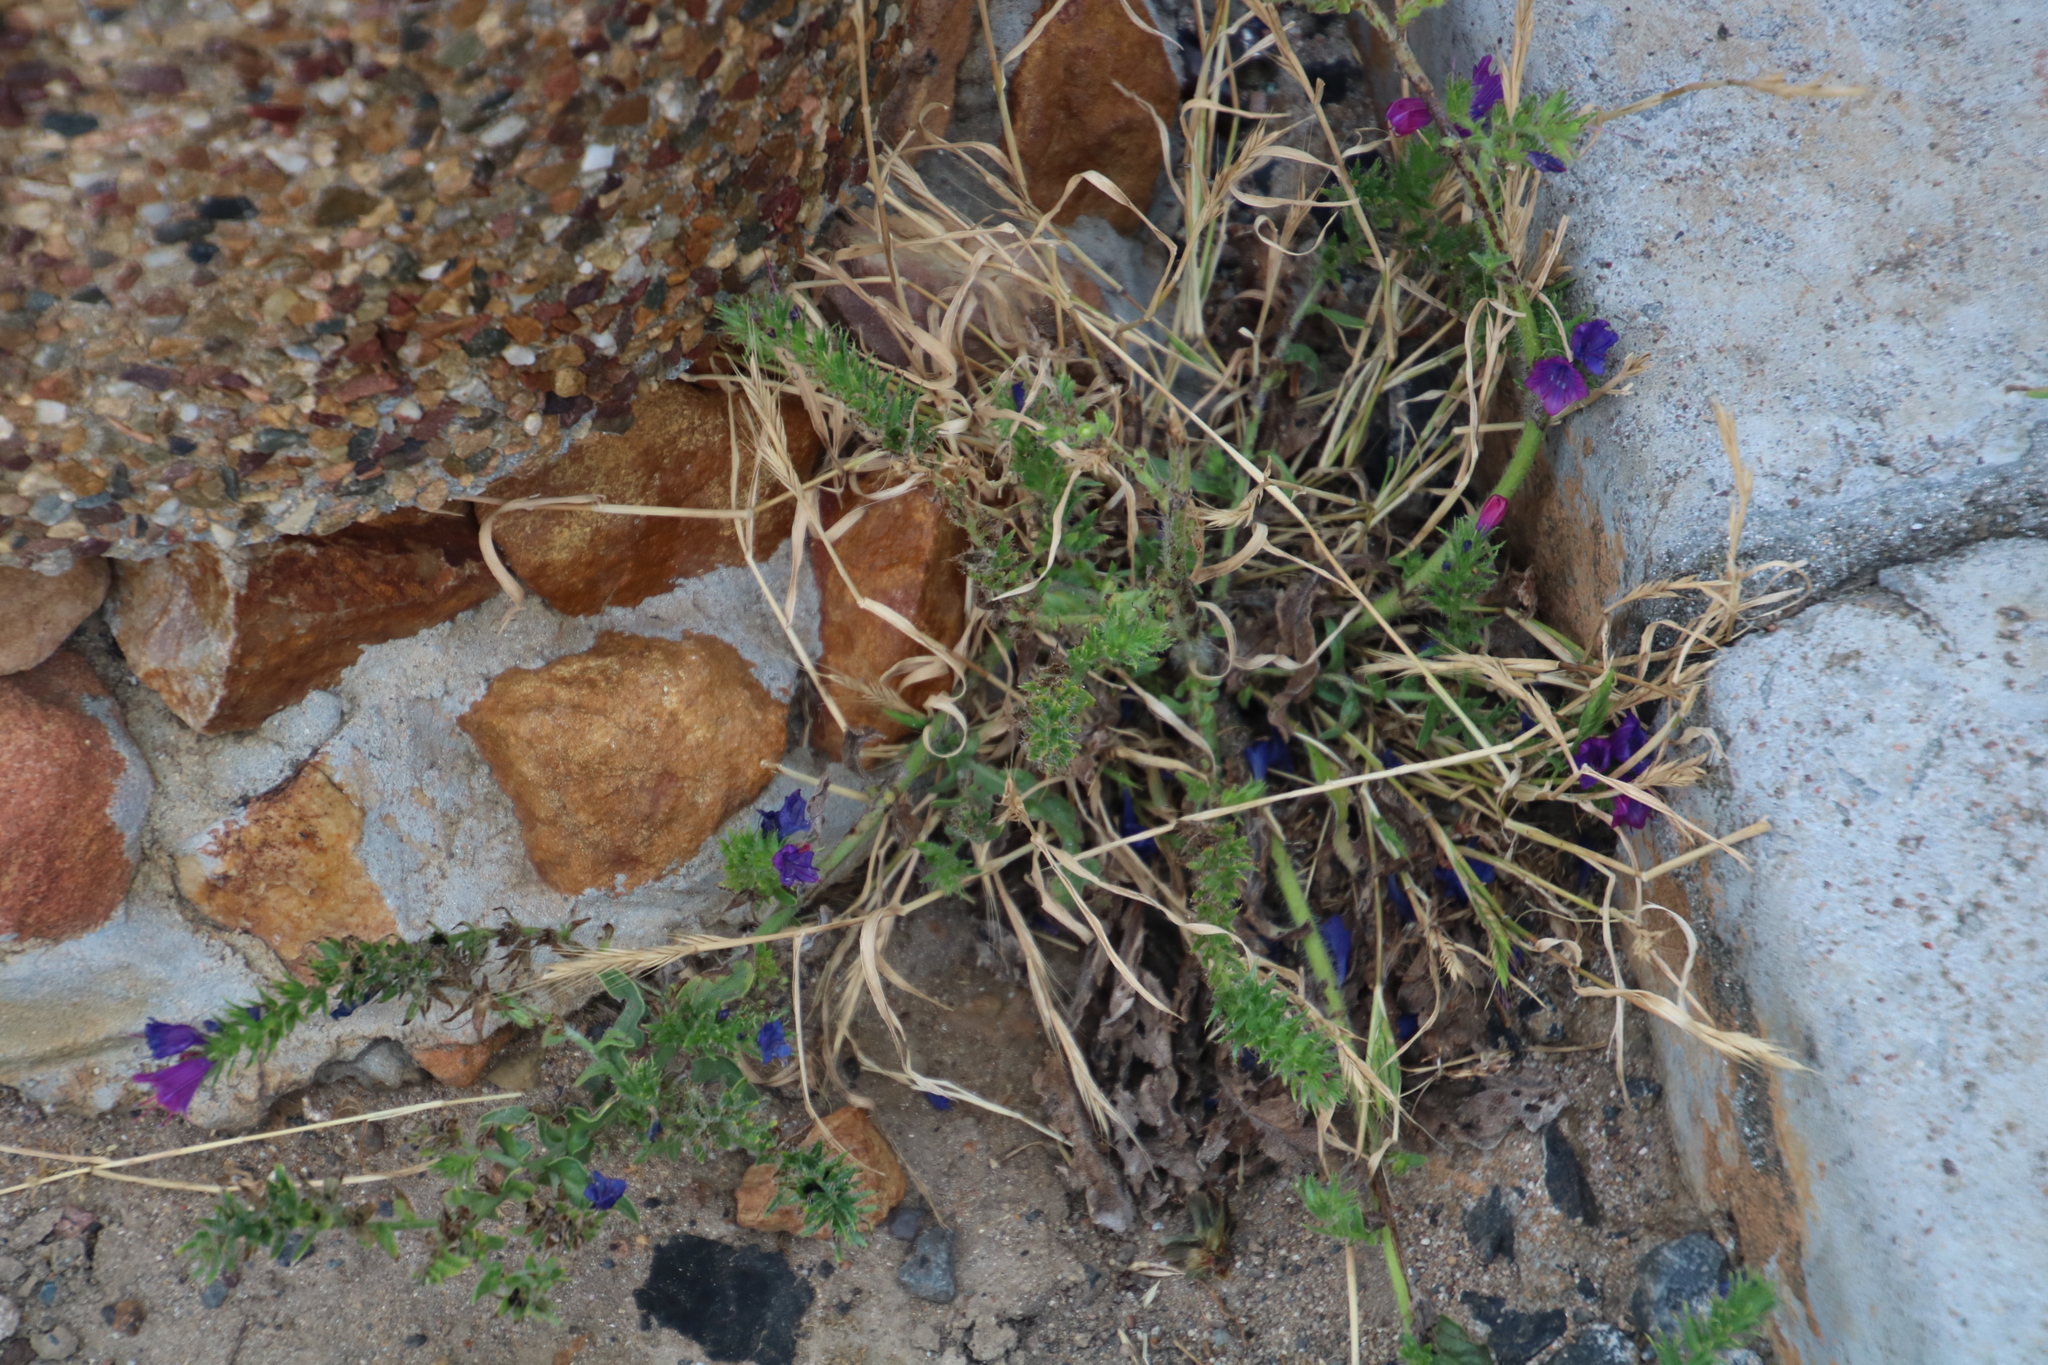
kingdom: Plantae
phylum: Tracheophyta
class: Magnoliopsida
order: Boraginales
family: Boraginaceae
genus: Echium
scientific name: Echium plantagineum
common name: Purple viper's-bugloss
